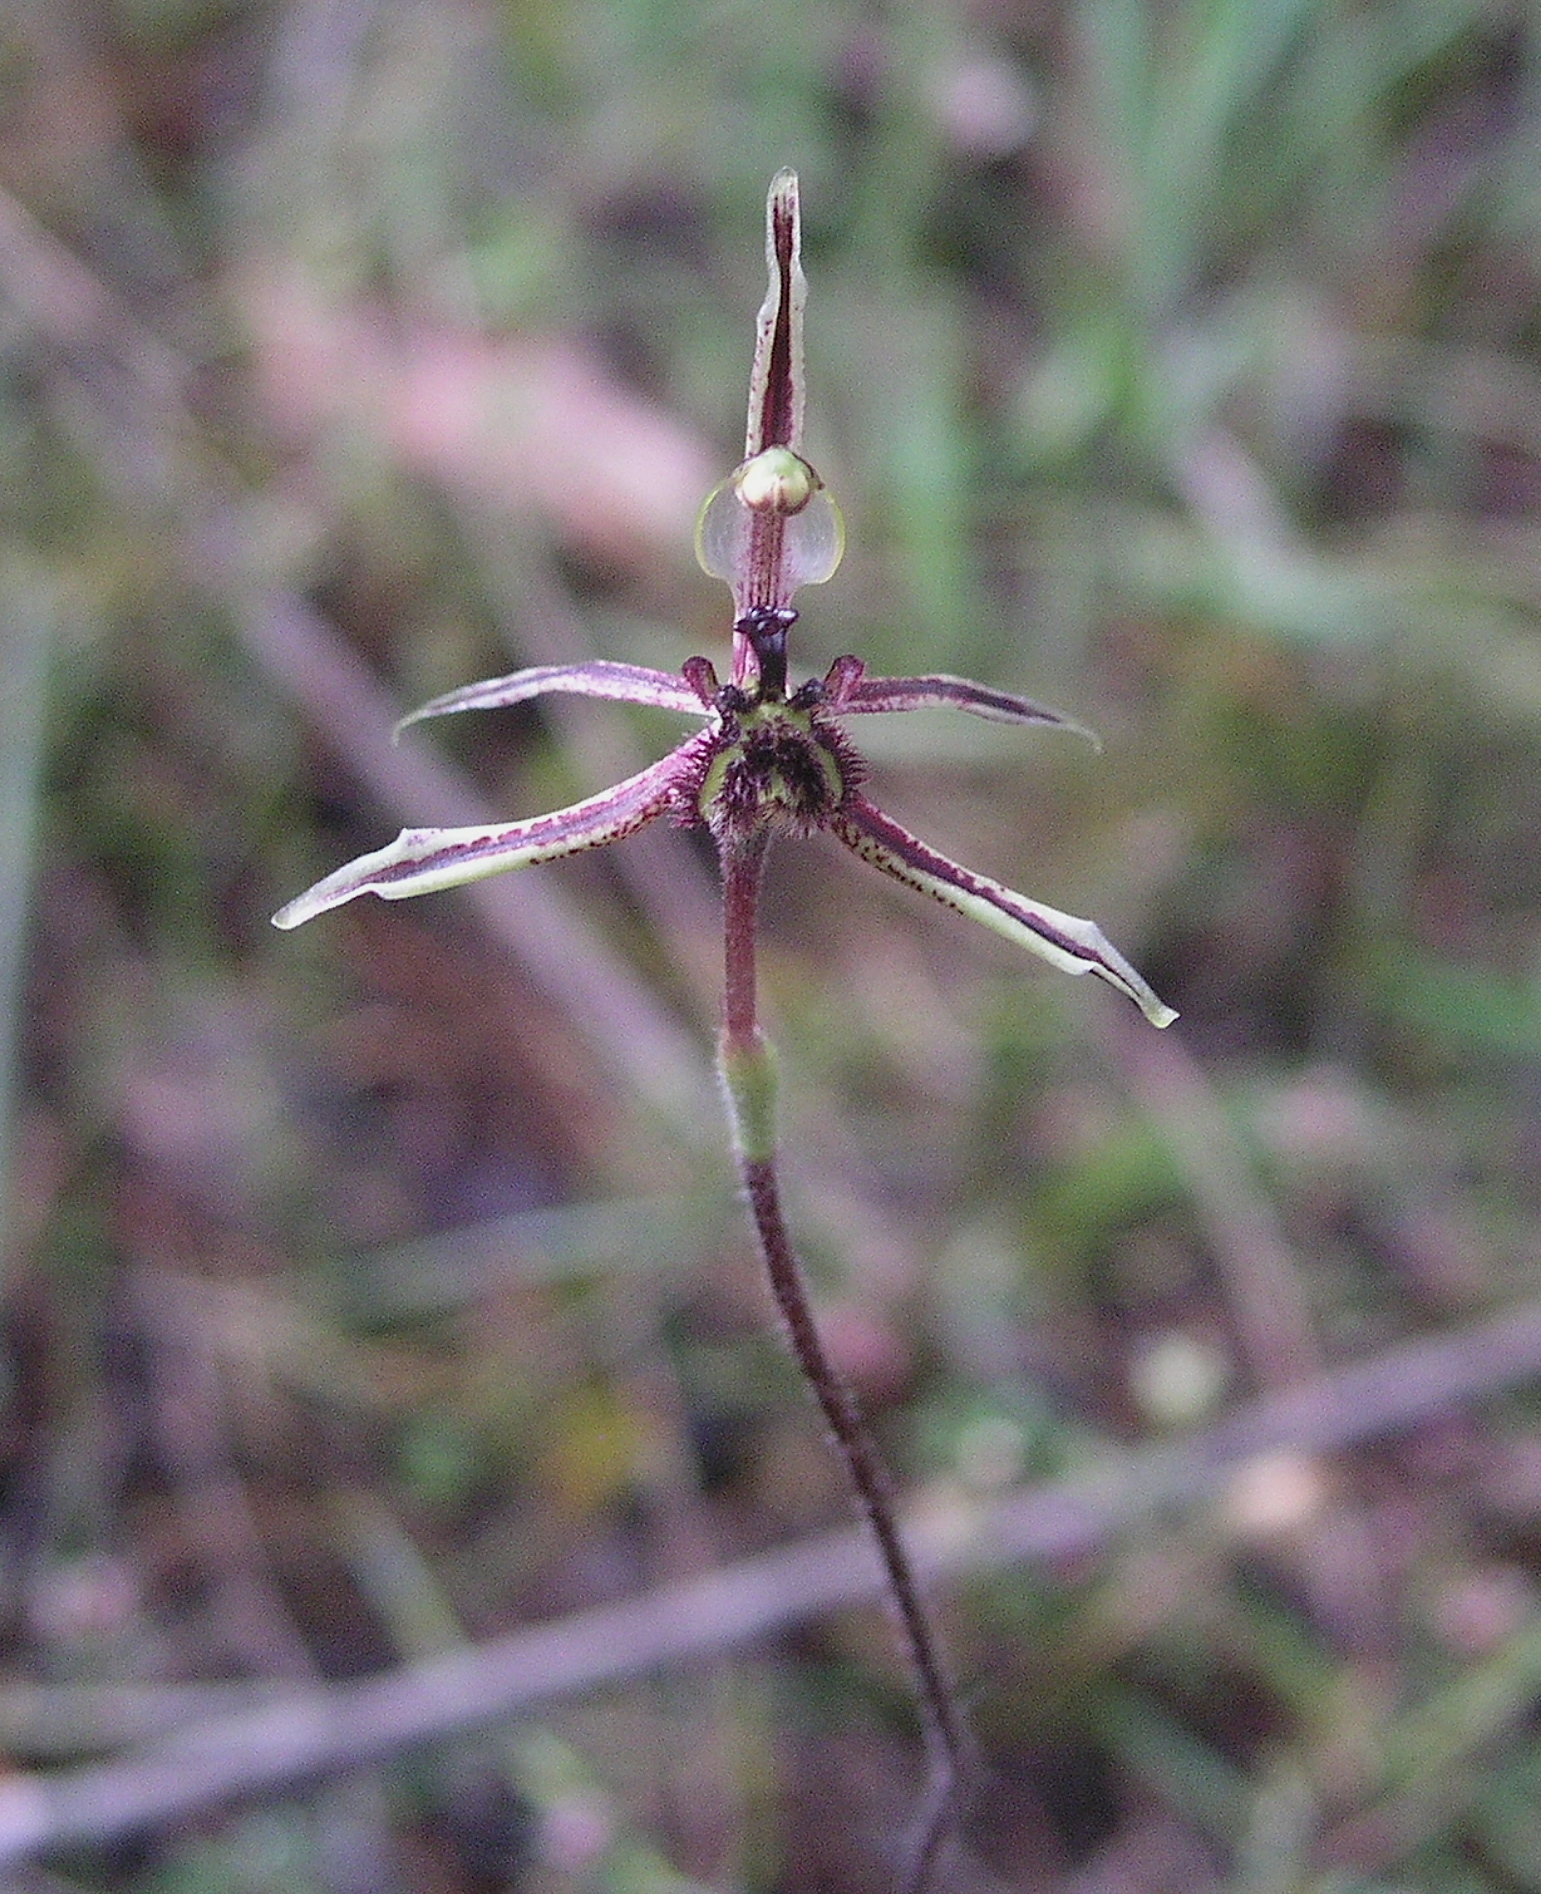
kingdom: Plantae
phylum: Tracheophyta
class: Liliopsida
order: Asparagales
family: Orchidaceae
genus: Caladenia
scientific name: Caladenia barbarossa
